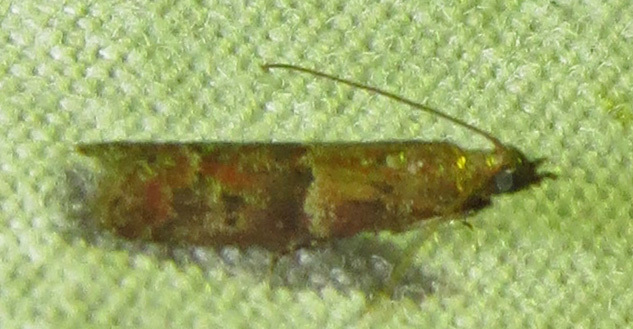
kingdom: Animalia
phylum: Arthropoda
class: Insecta
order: Lepidoptera
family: Pyralidae
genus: Ephestiodes
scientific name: Ephestiodes infimella
